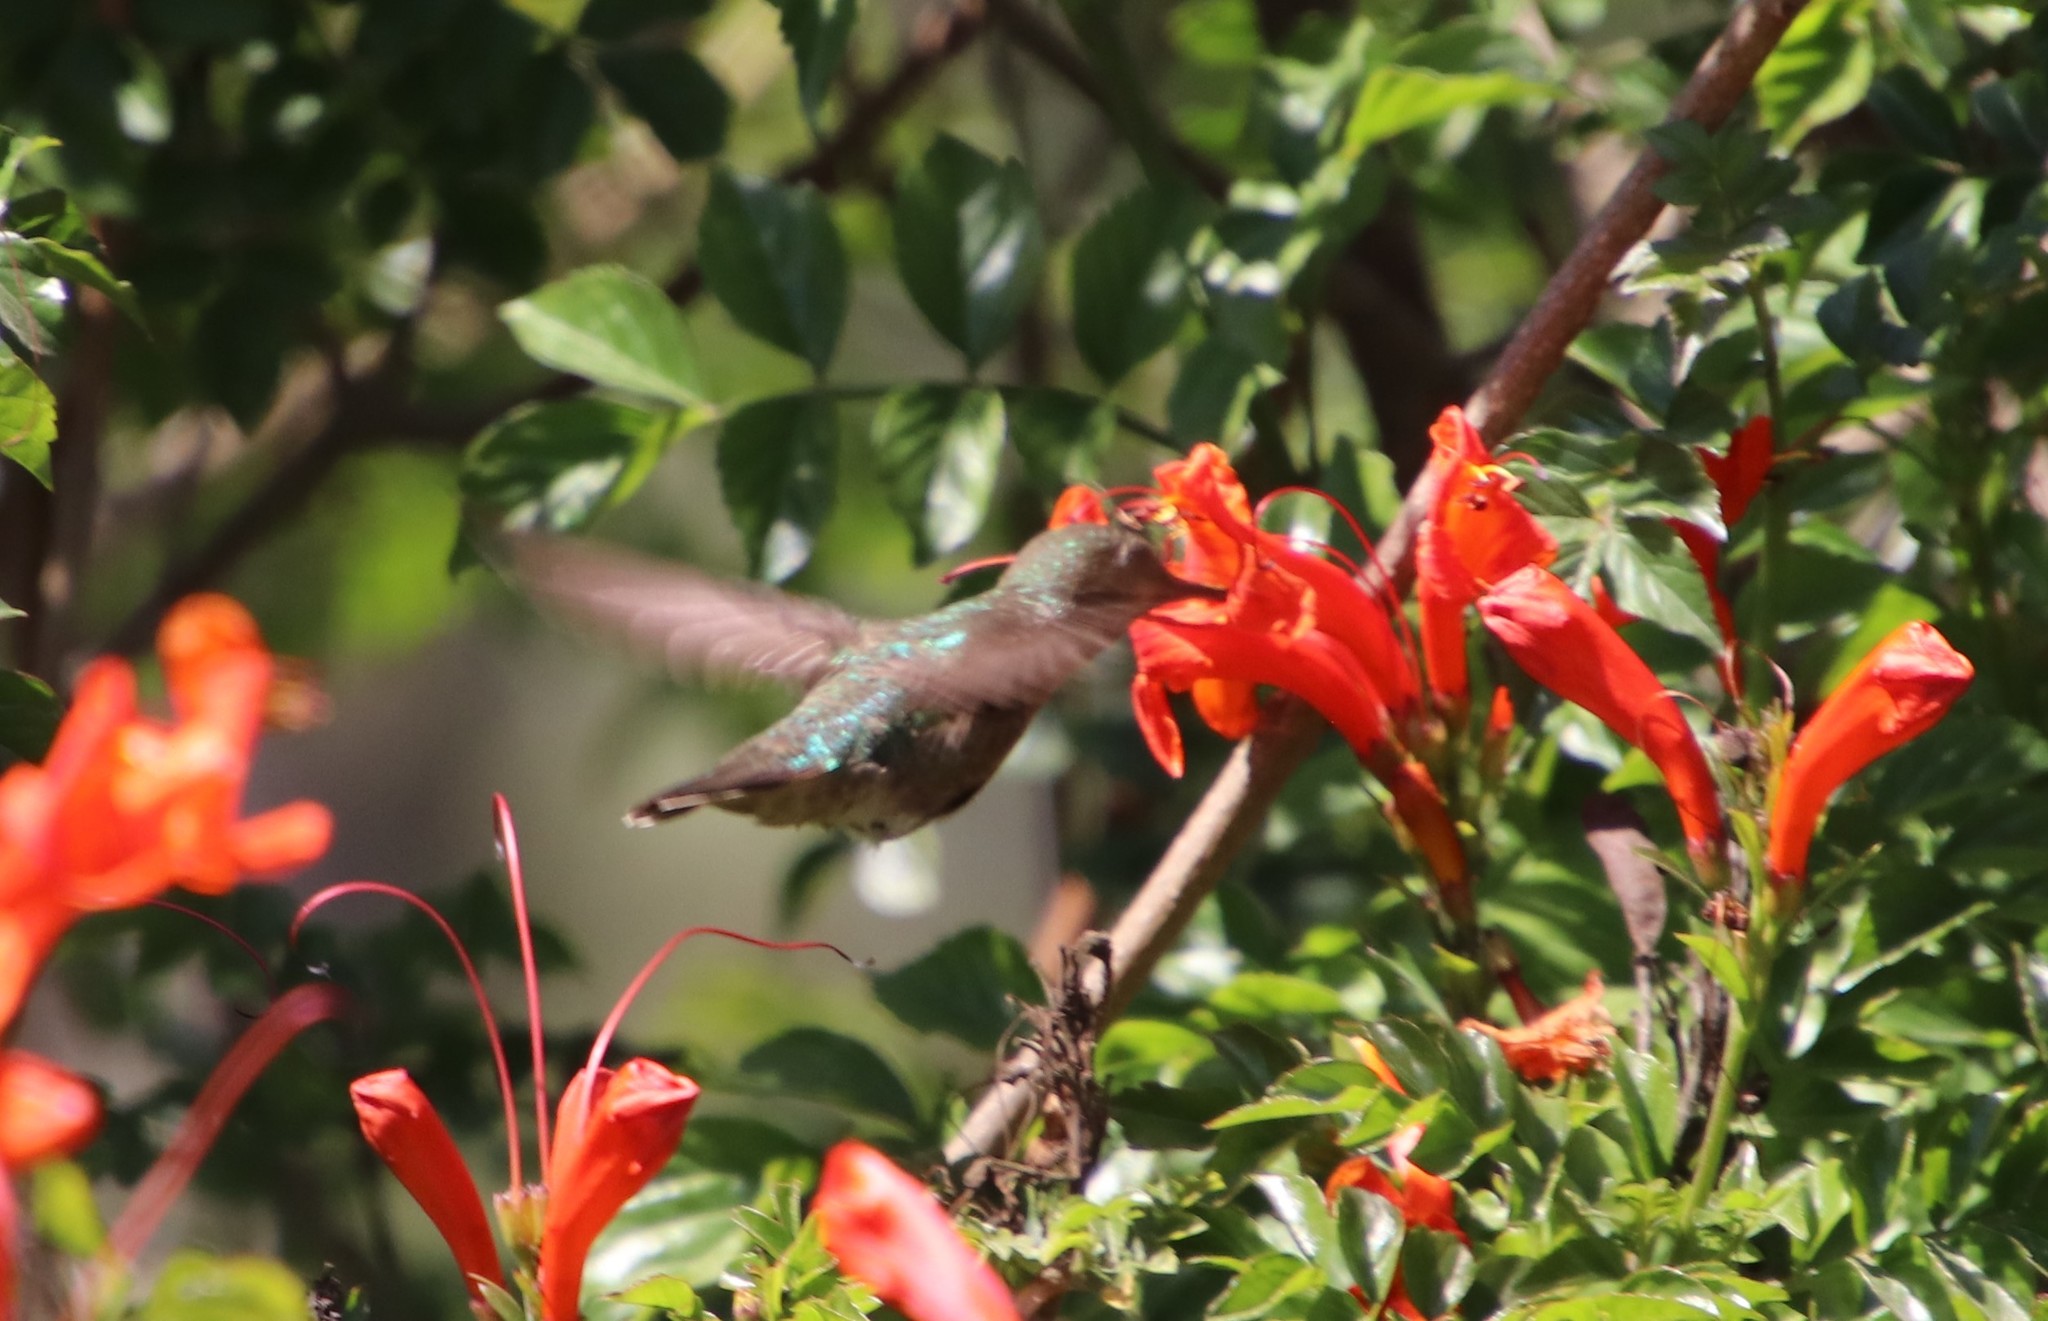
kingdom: Animalia
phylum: Chordata
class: Aves
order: Apodiformes
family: Trochilidae
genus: Calypte
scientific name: Calypte anna
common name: Anna's hummingbird
